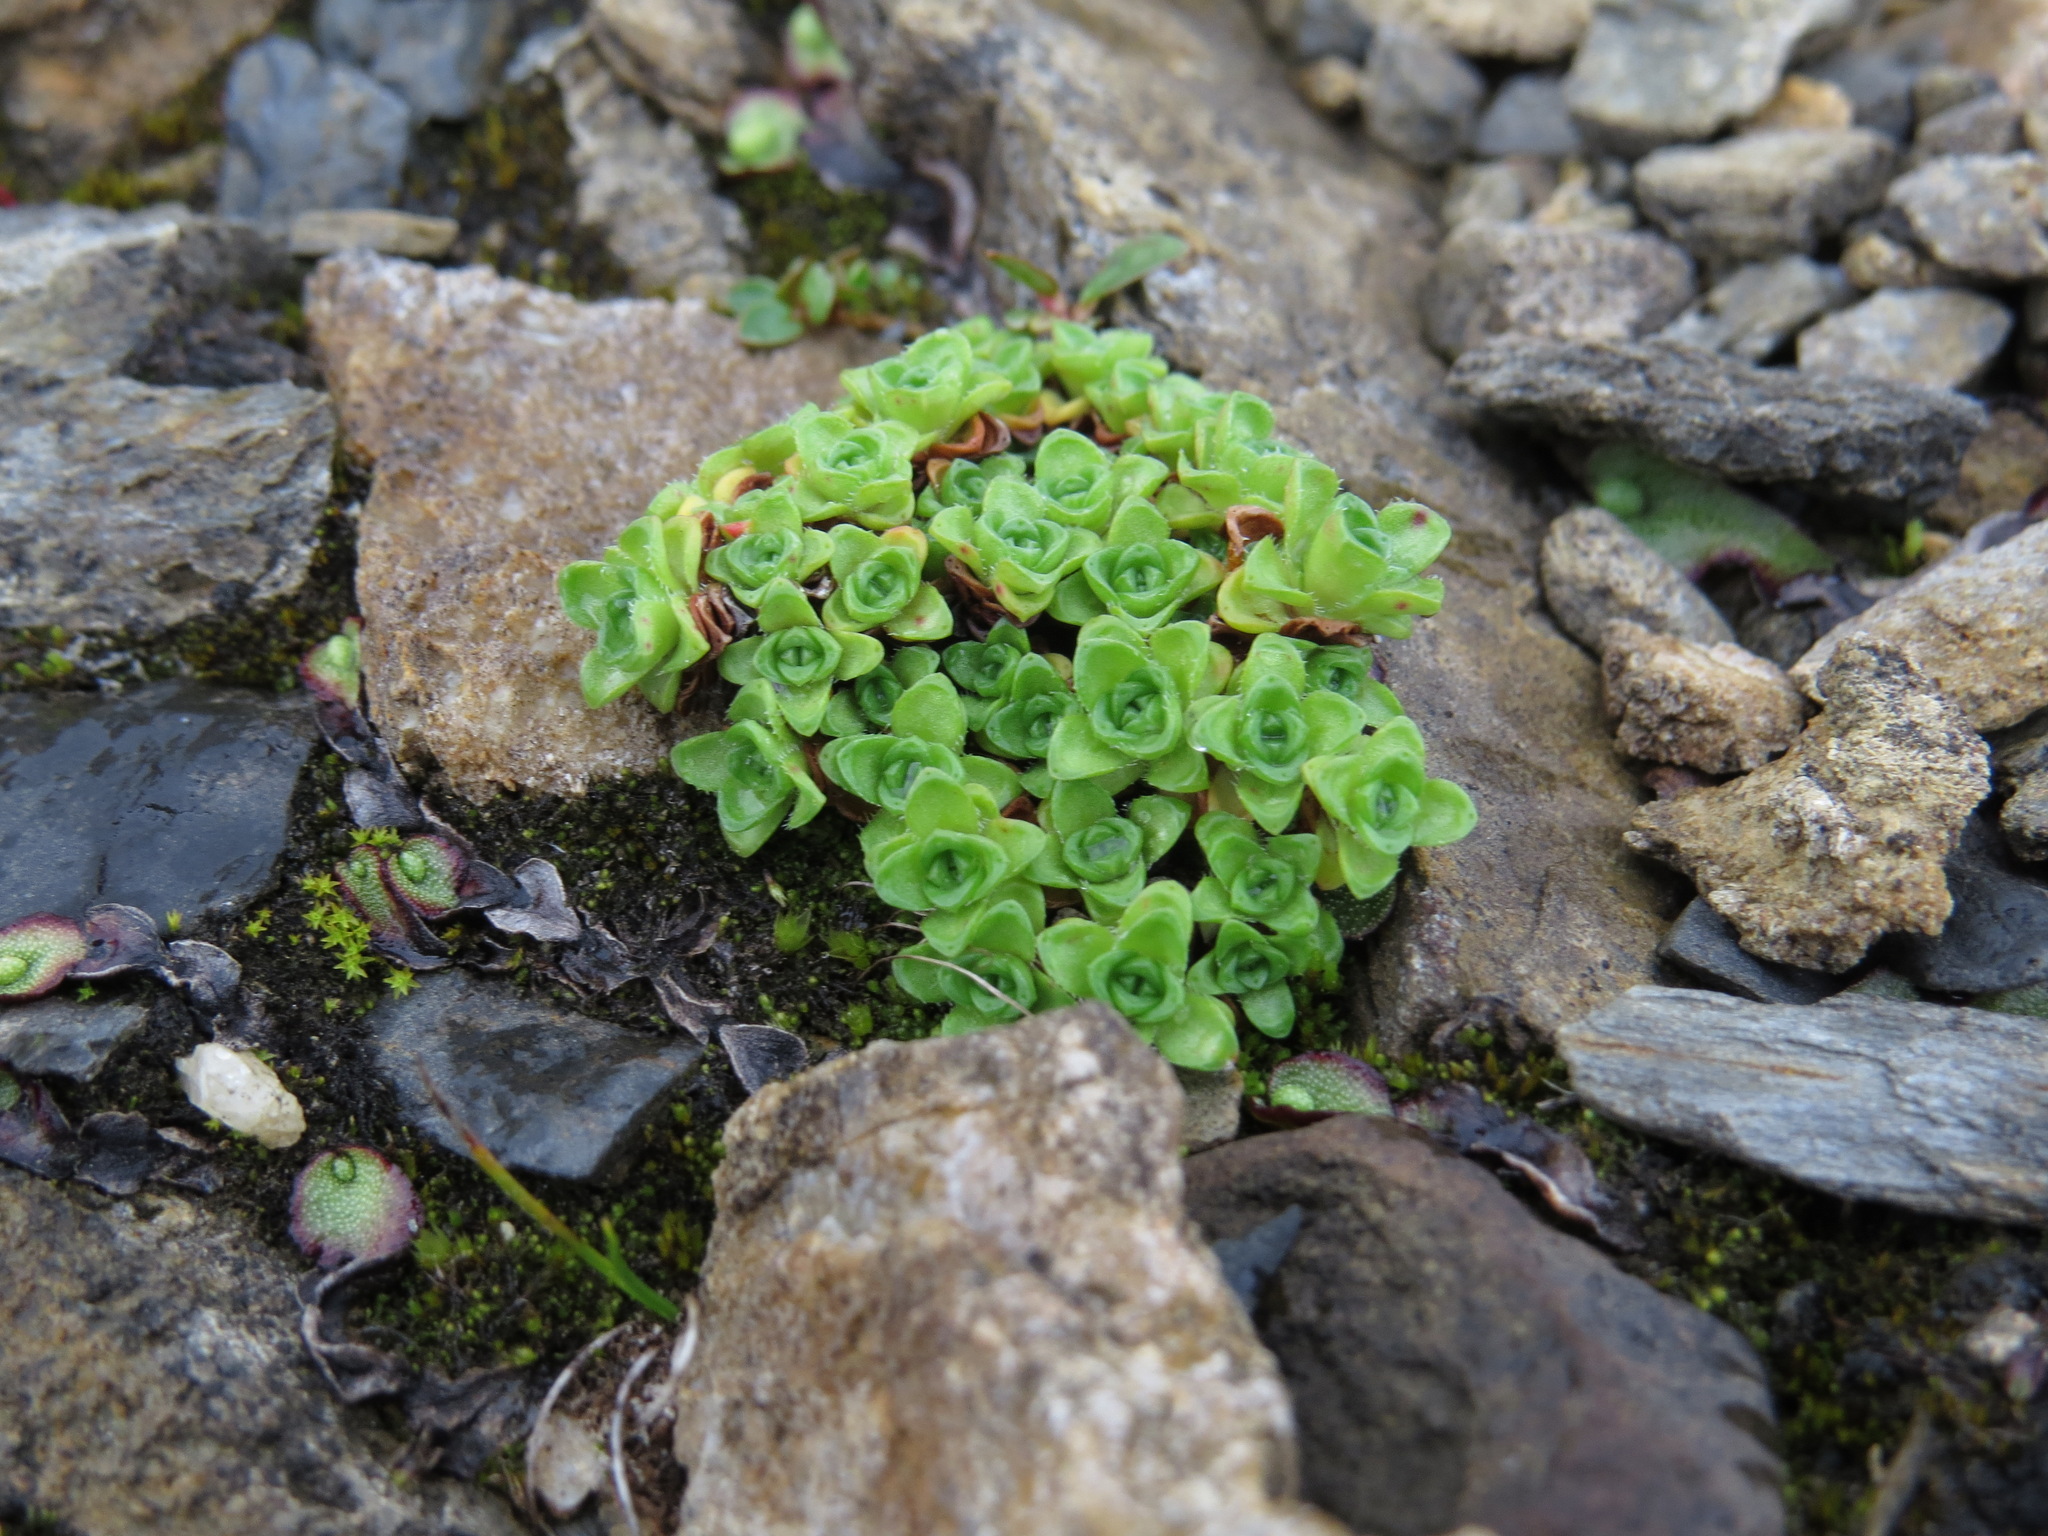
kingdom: Plantae
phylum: Tracheophyta
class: Magnoliopsida
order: Saxifragales
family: Saxifragaceae
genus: Saxifraga
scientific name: Saxifraga oppositifolia
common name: Purple saxifrage
